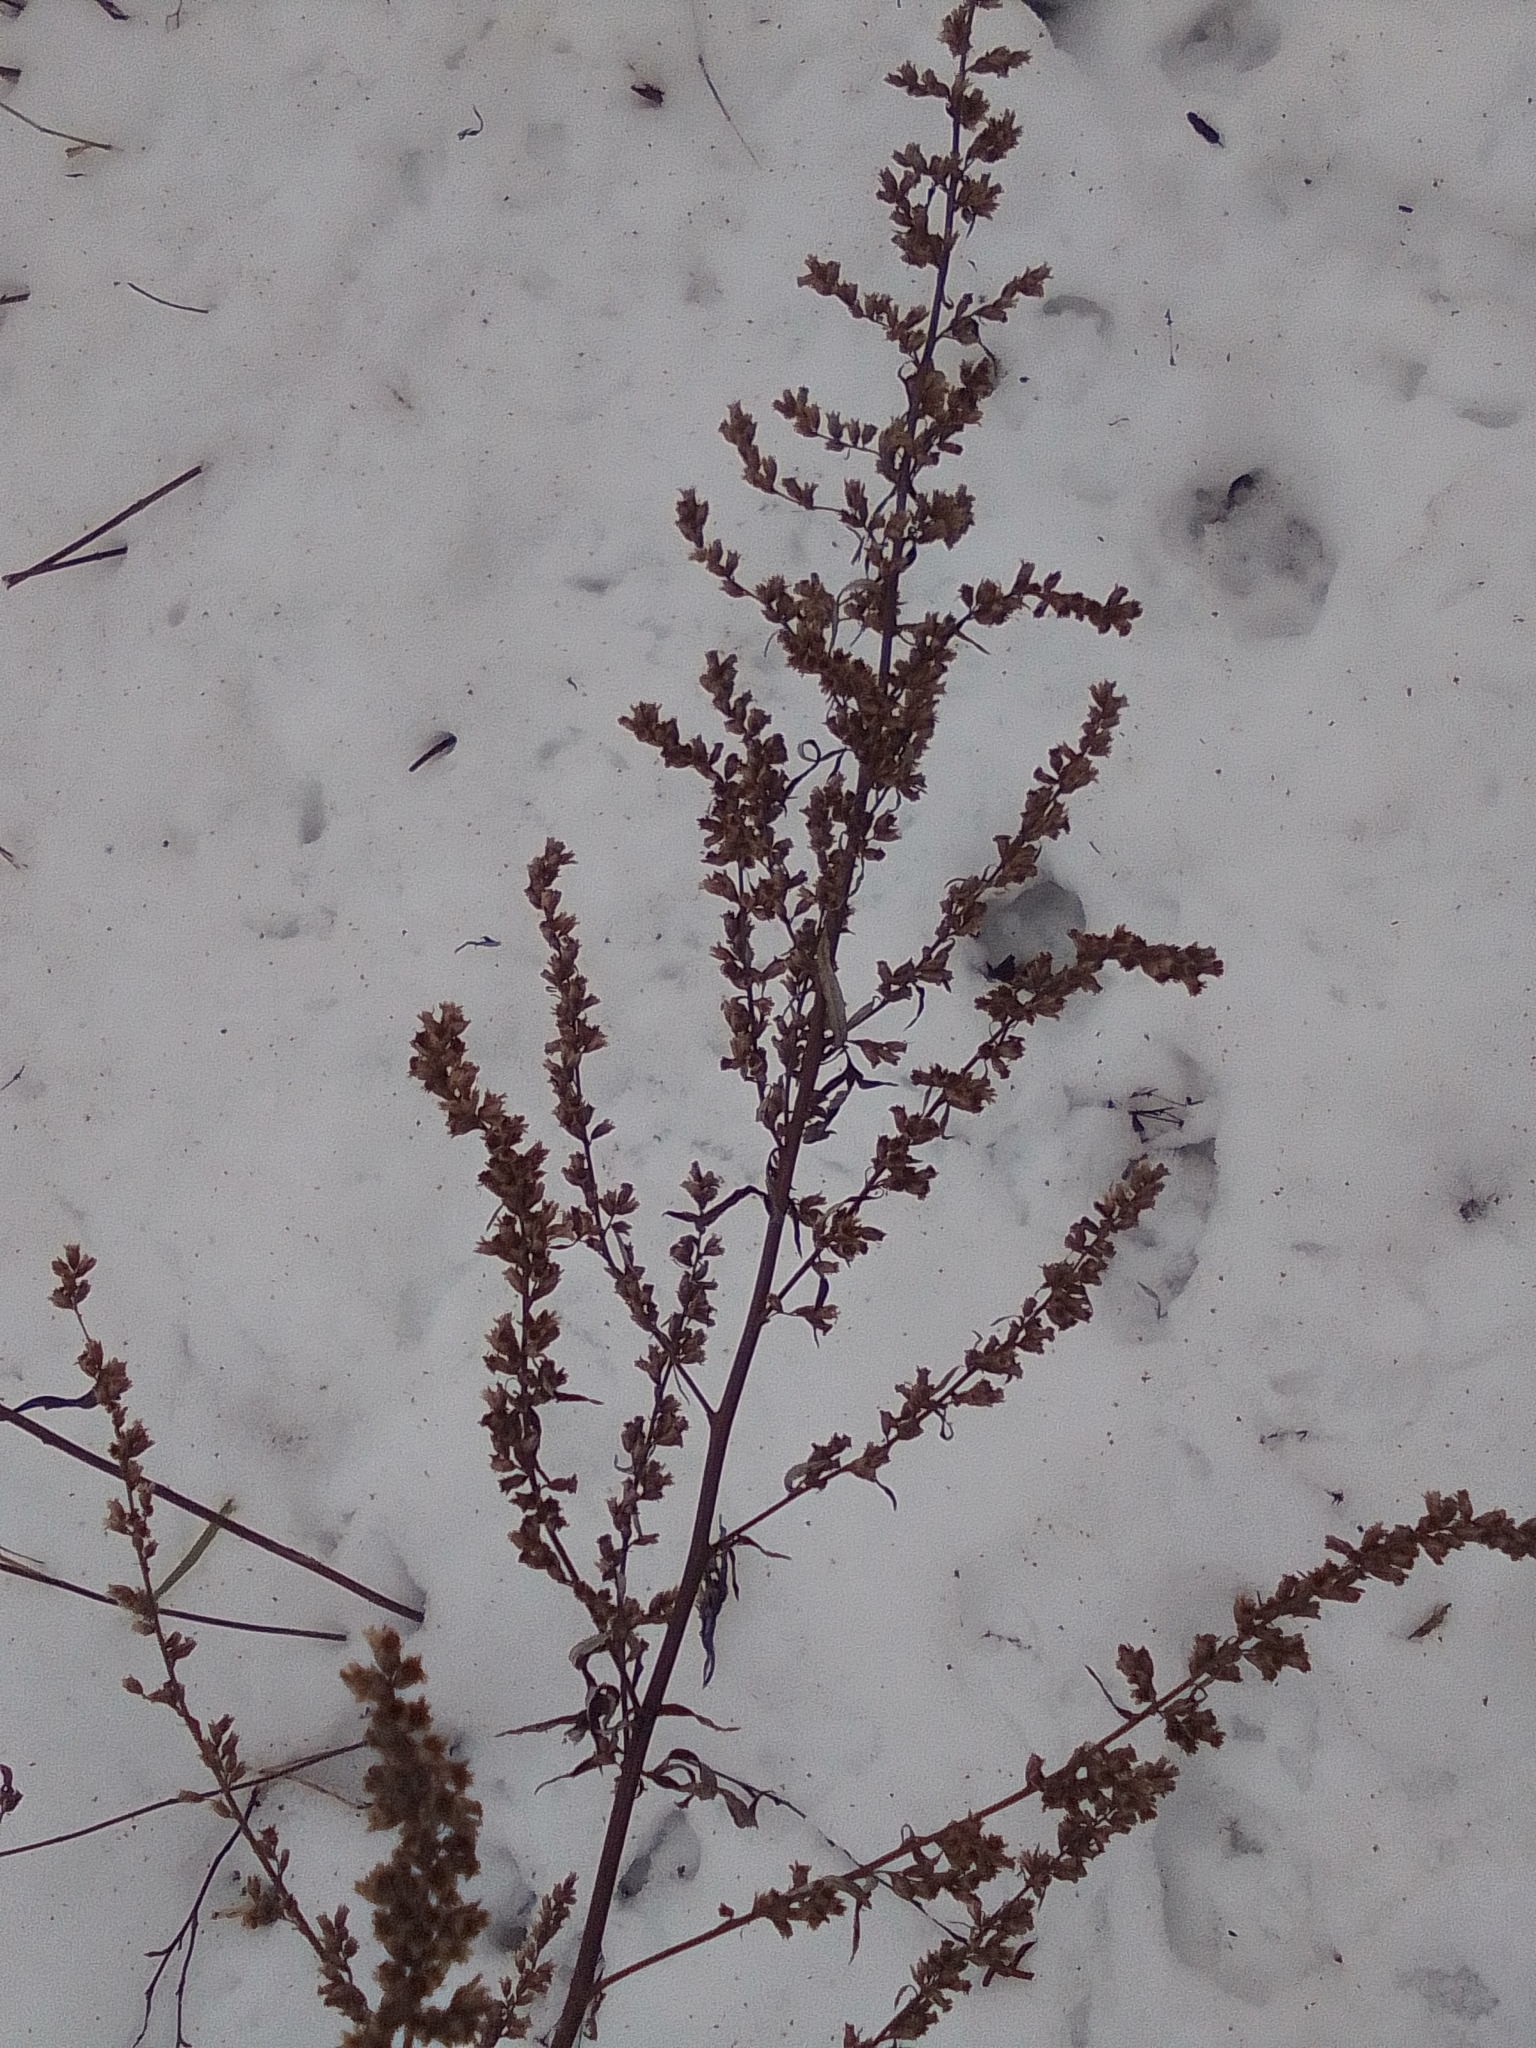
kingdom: Plantae
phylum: Tracheophyta
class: Magnoliopsida
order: Asterales
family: Asteraceae
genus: Artemisia
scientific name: Artemisia vulgaris
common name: Mugwort
